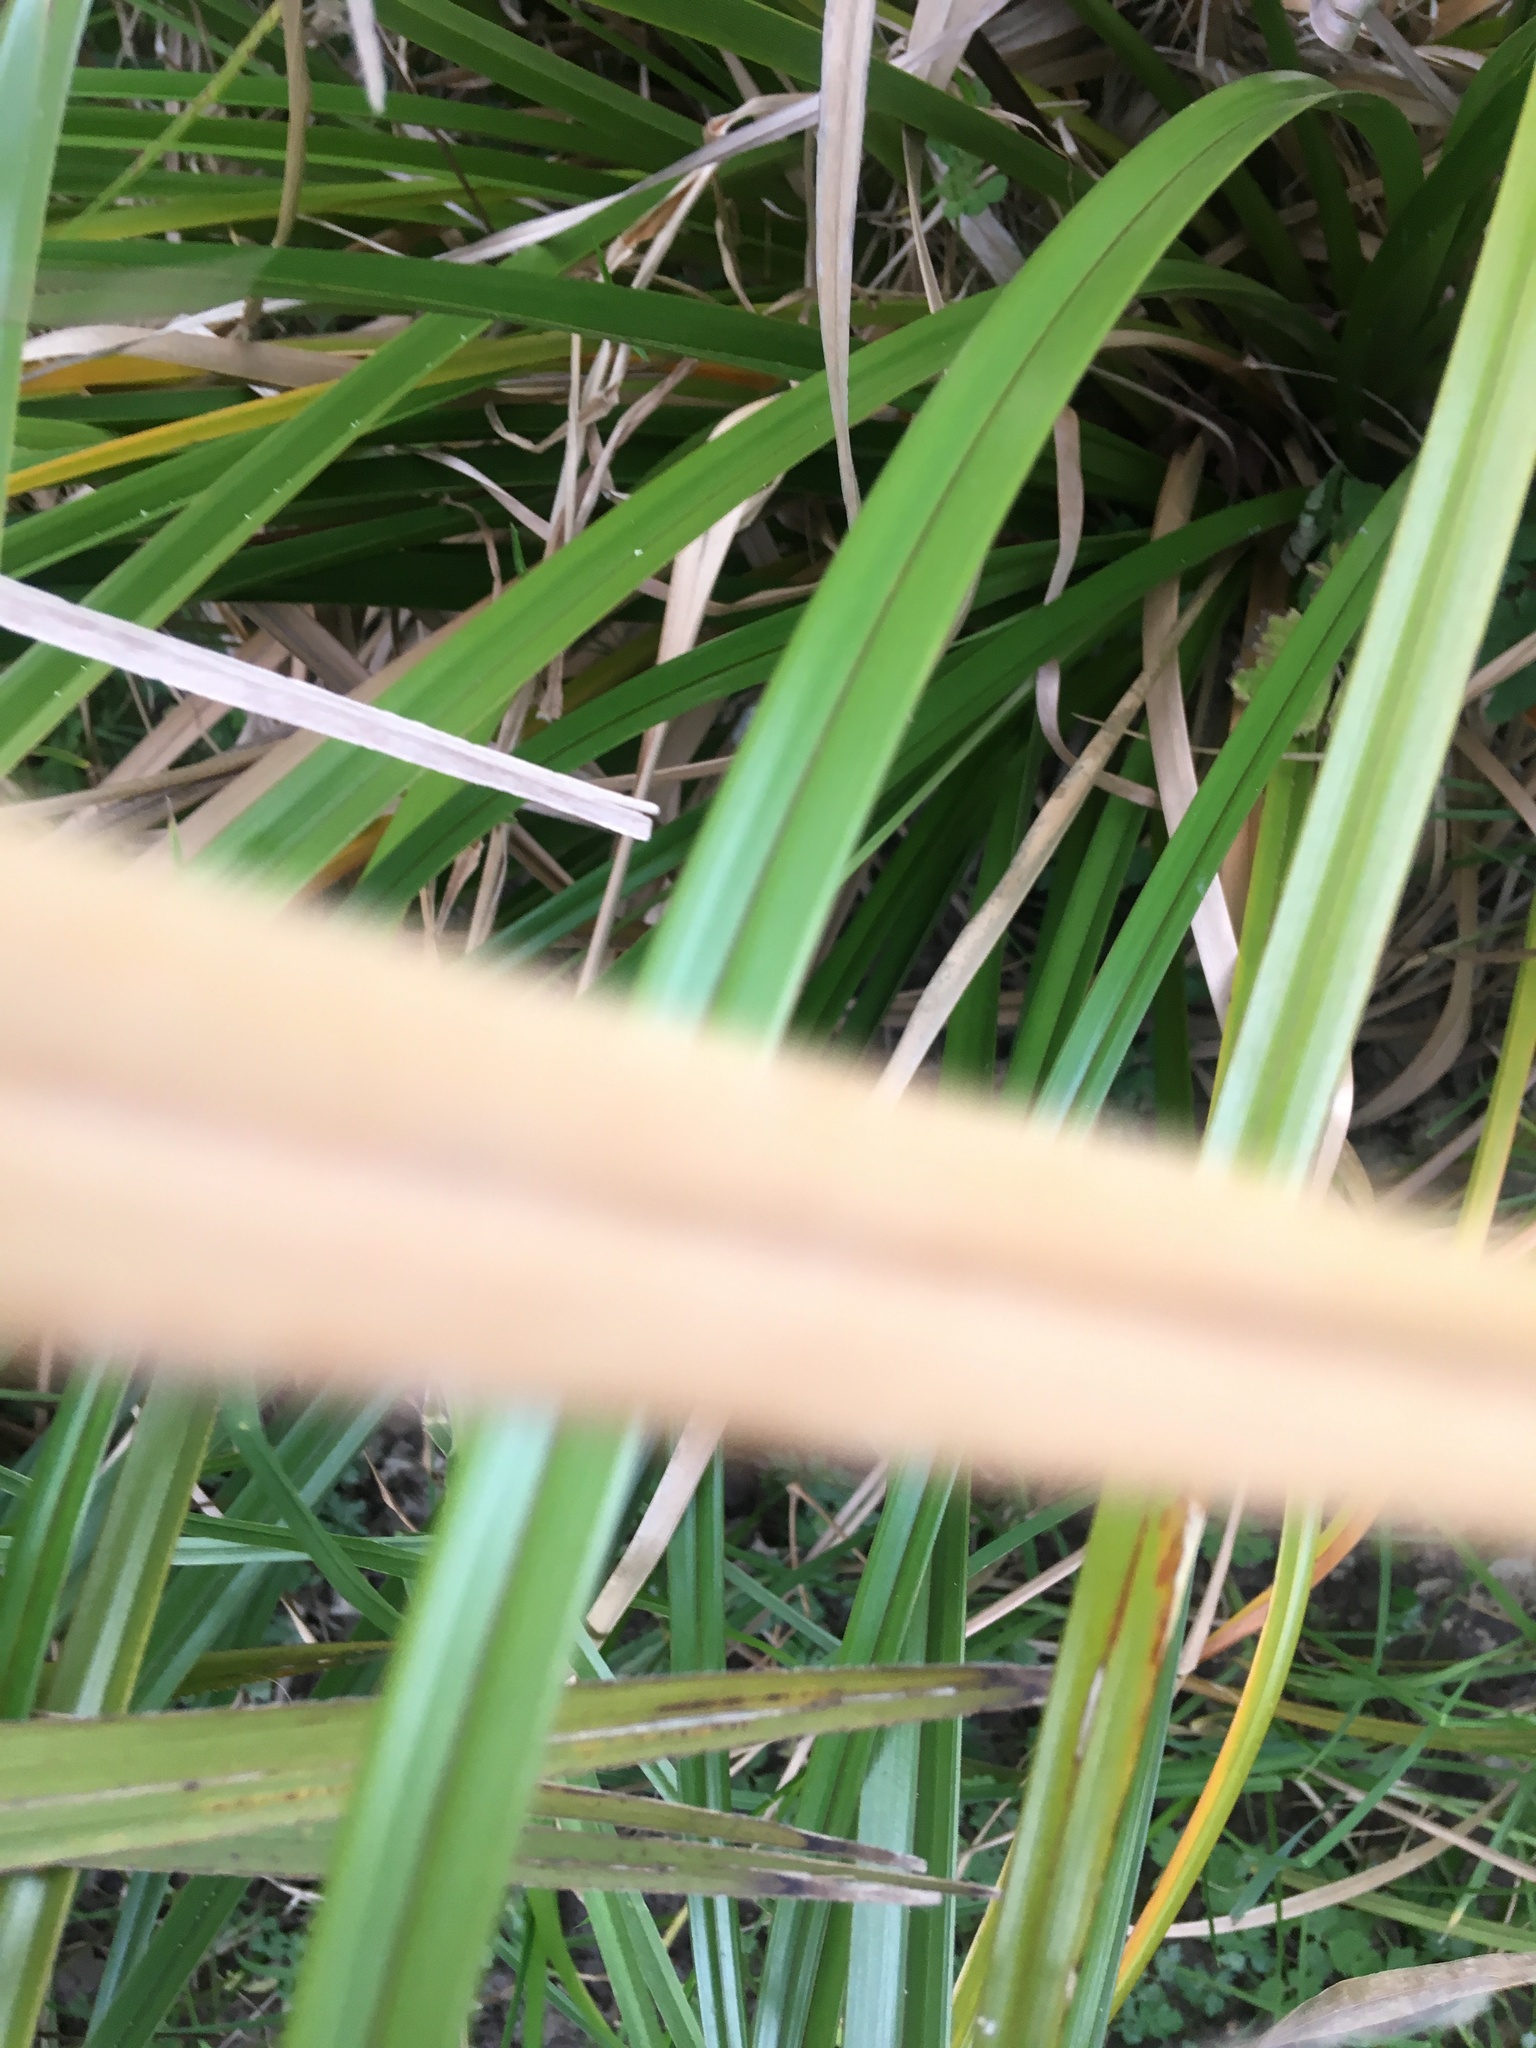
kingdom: Plantae
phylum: Tracheophyta
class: Liliopsida
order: Poales
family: Cyperaceae
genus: Cyperus
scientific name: Cyperus ustulatus
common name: Giant umbrella-sedge
